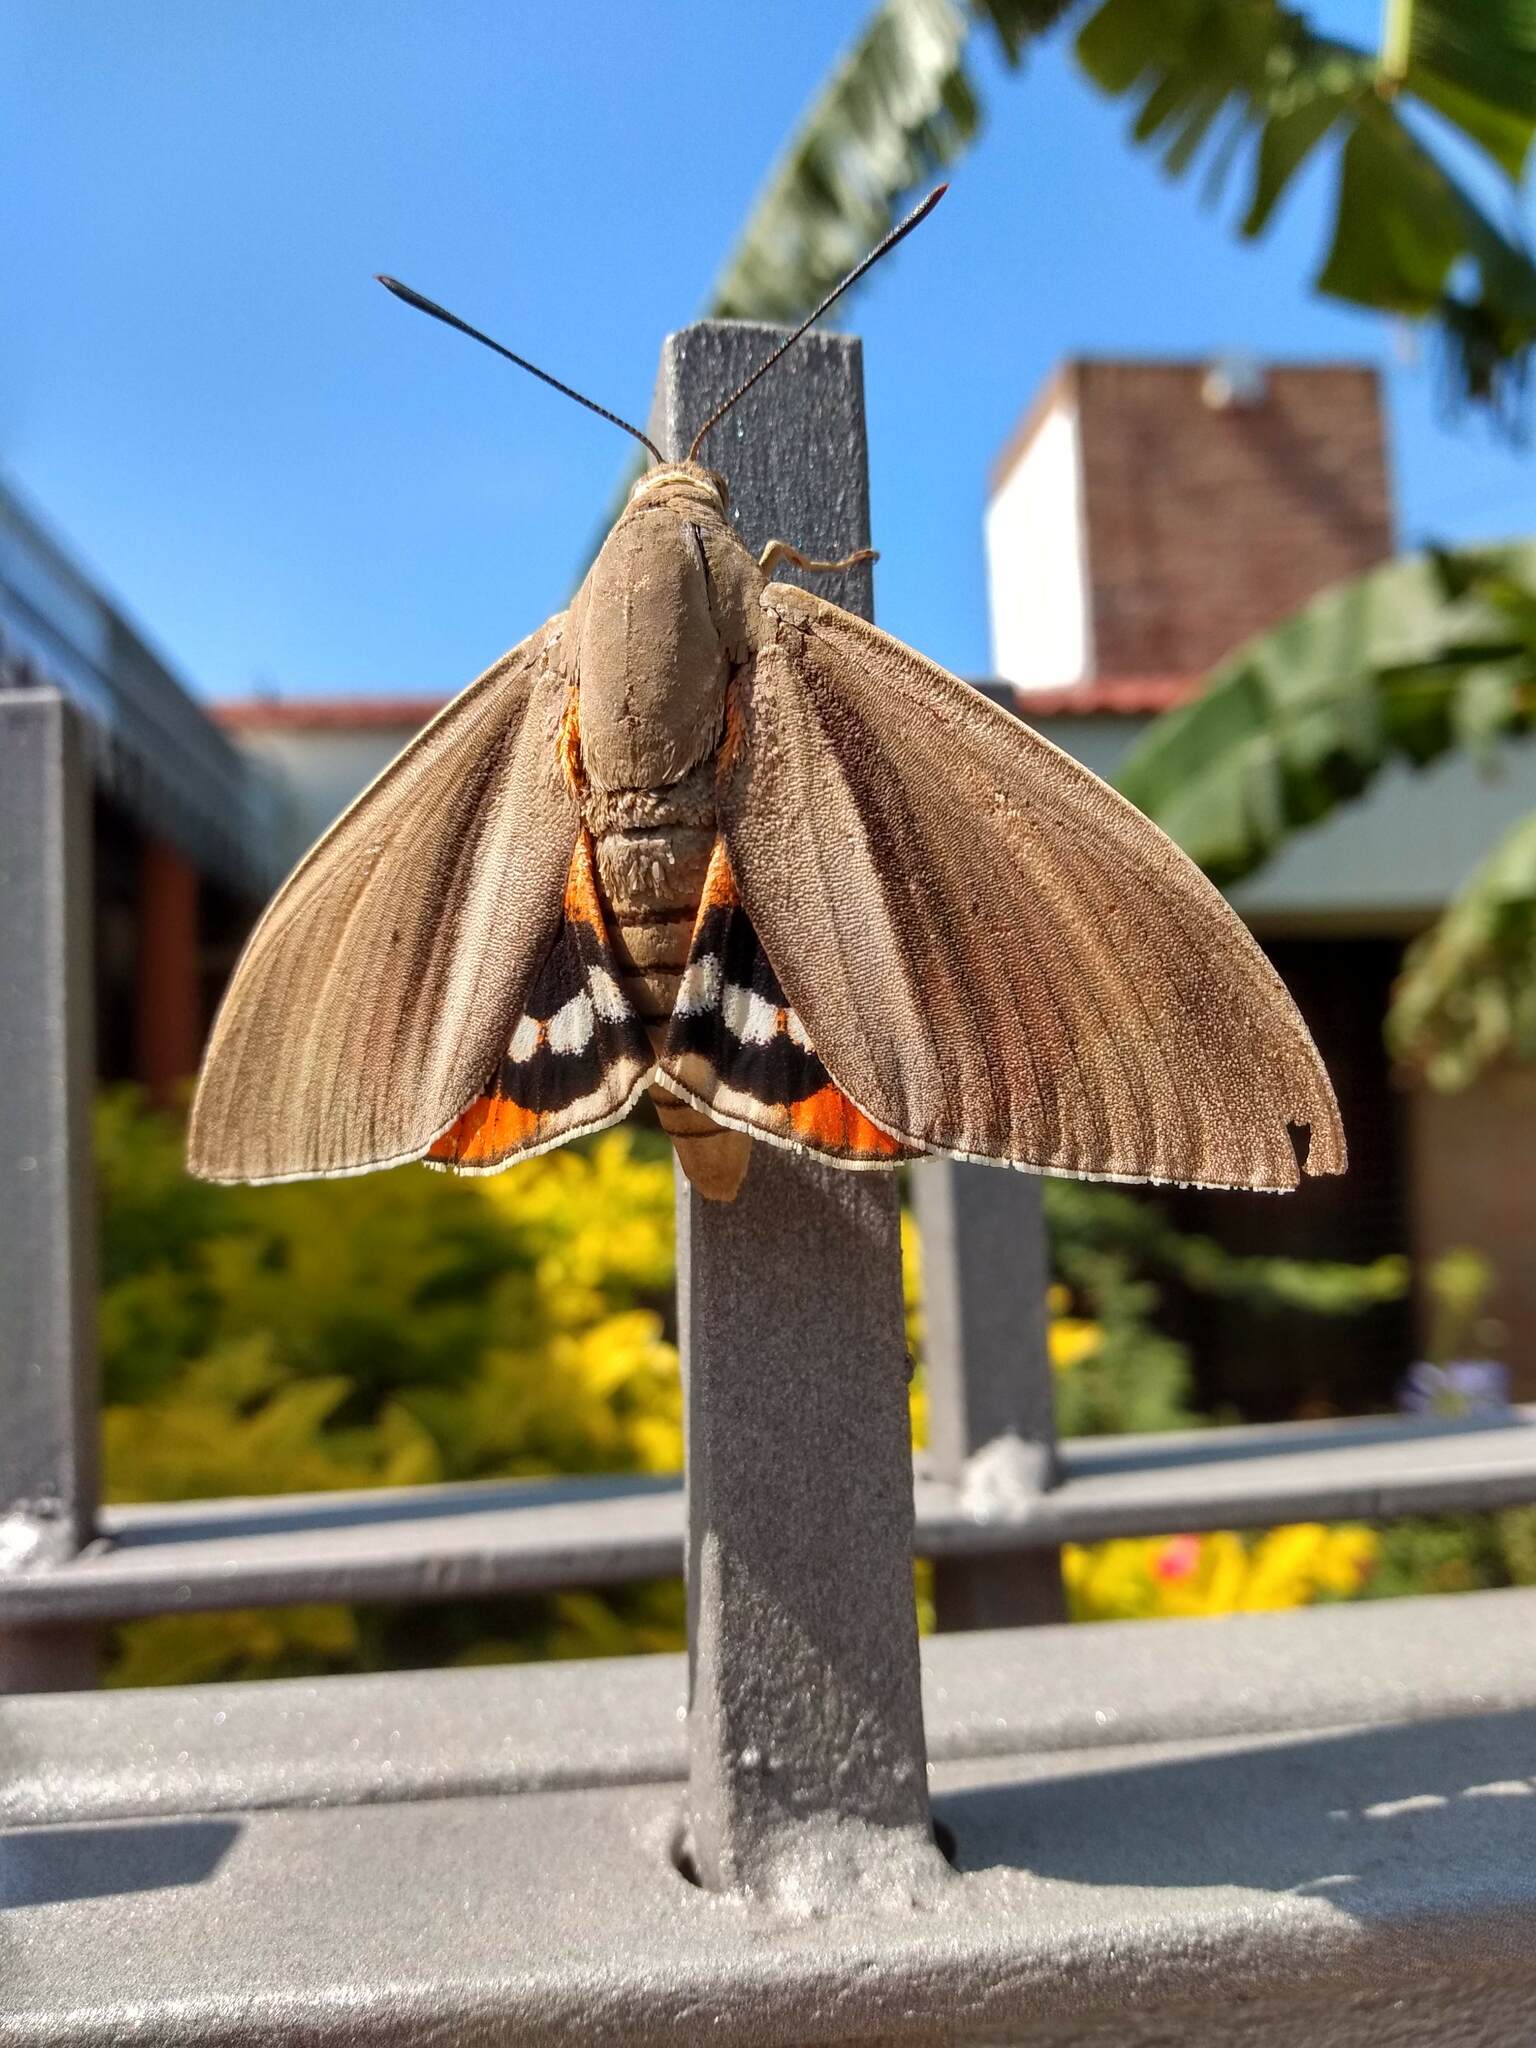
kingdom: Animalia
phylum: Arthropoda
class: Insecta
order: Lepidoptera
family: Castniidae
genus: Paysandisia
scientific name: Paysandisia archon
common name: Palm moth
